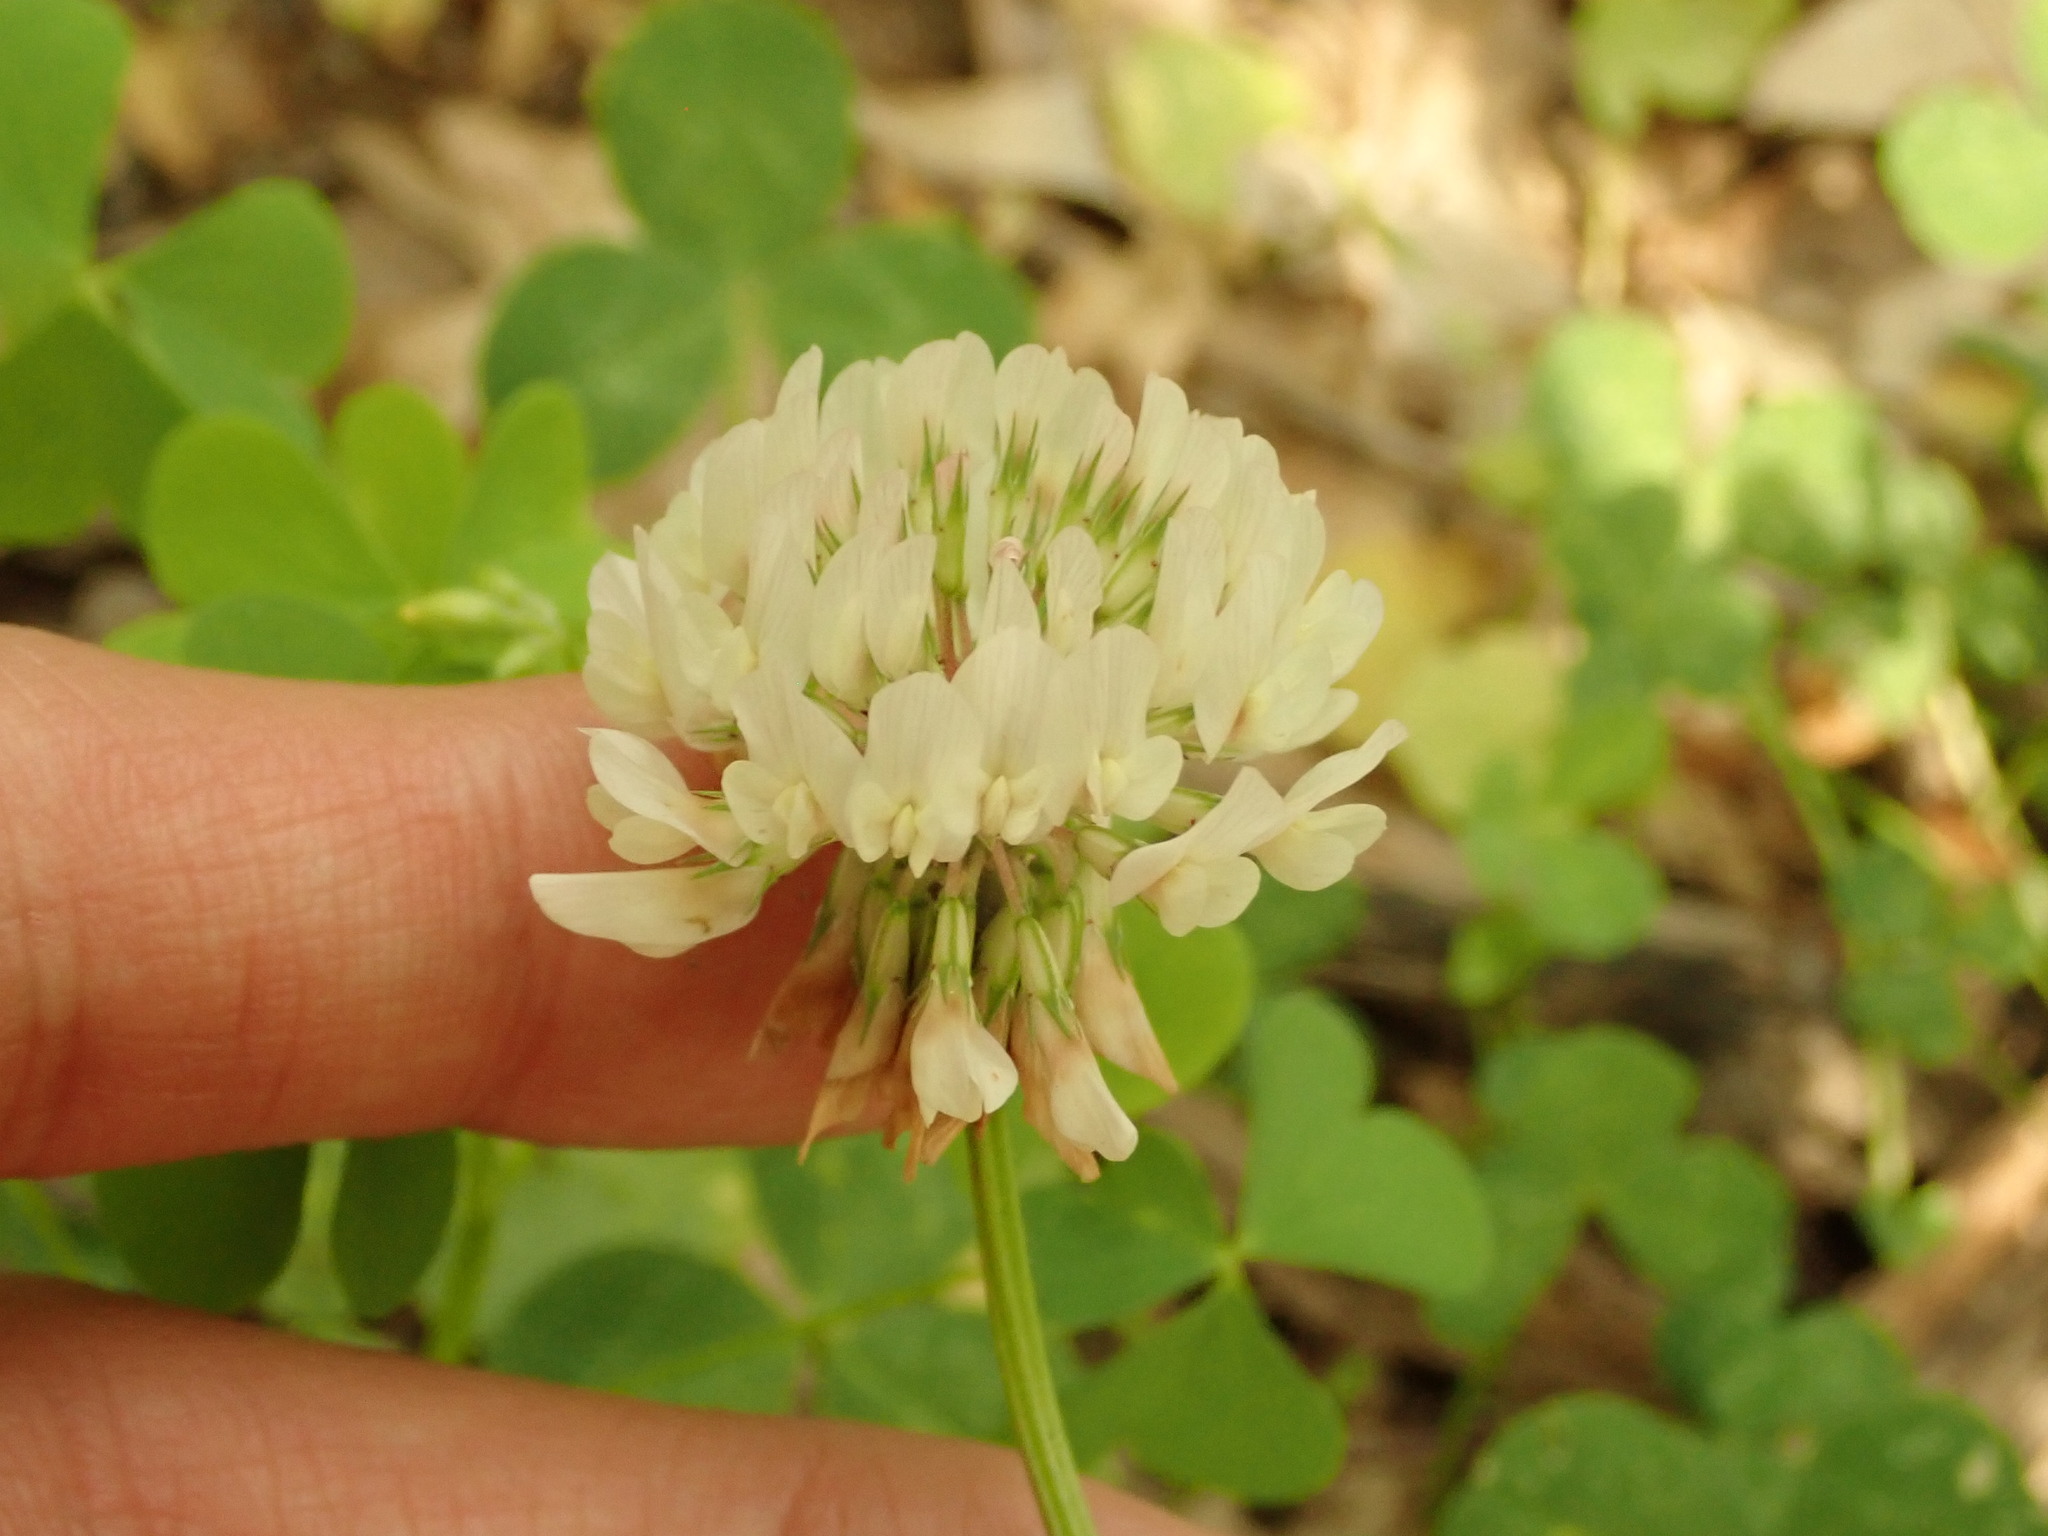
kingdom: Plantae
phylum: Tracheophyta
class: Magnoliopsida
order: Fabales
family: Fabaceae
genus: Trifolium
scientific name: Trifolium repens
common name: White clover
